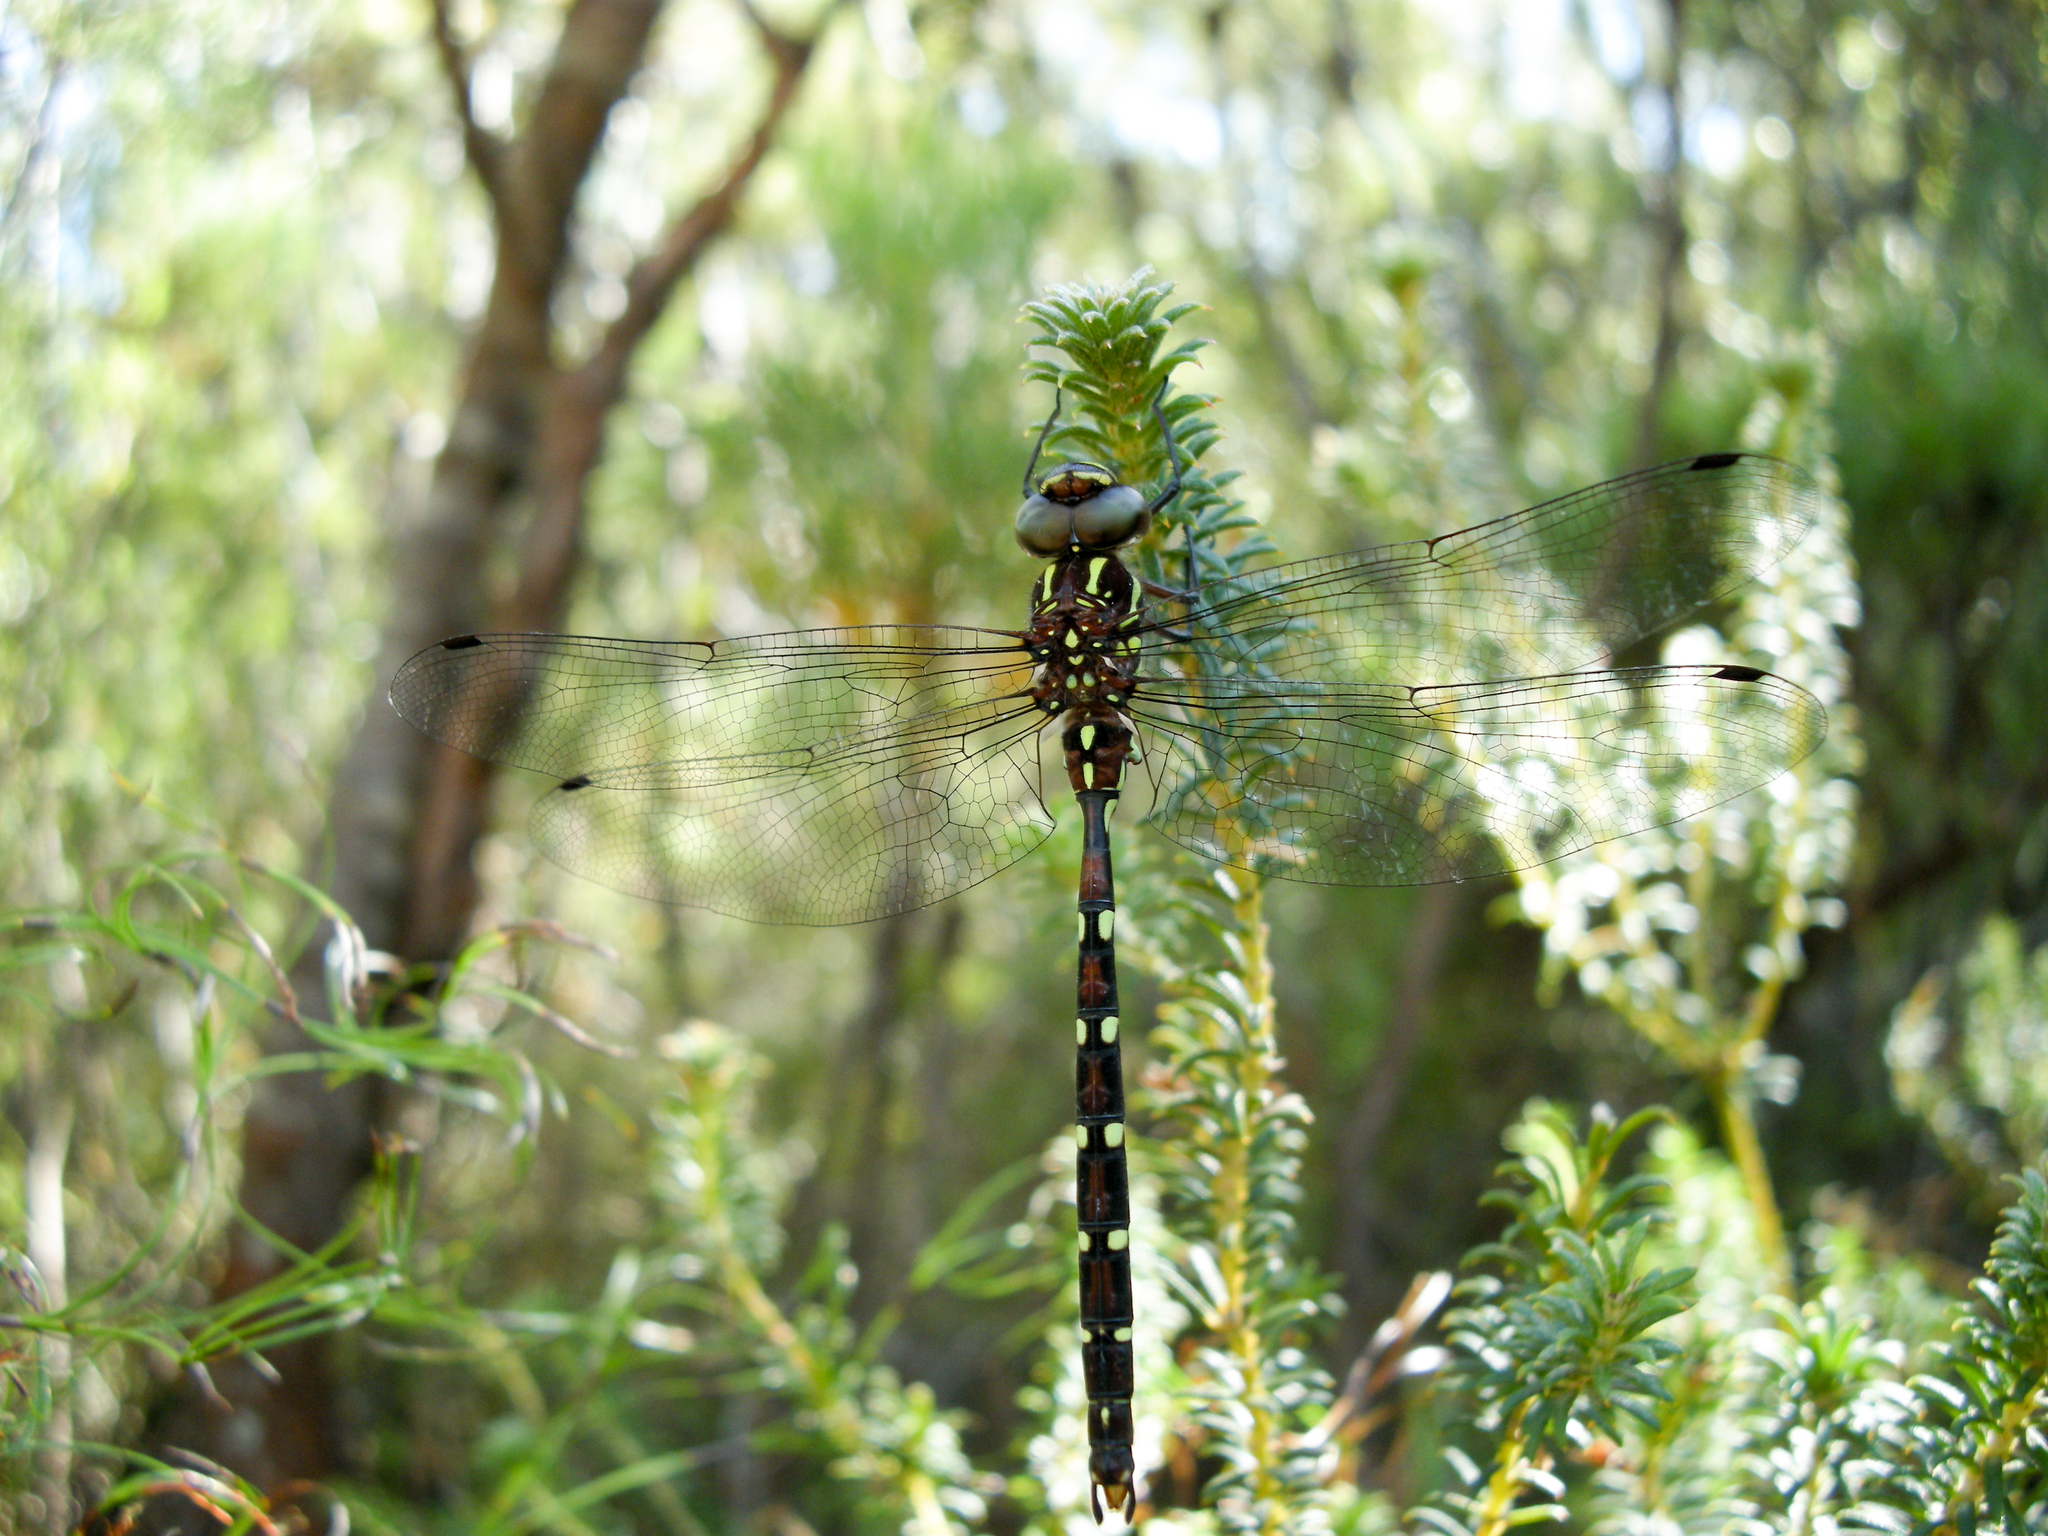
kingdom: Animalia
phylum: Arthropoda
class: Insecta
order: Odonata
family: Aeshnidae
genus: Austroaeschna
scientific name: Austroaeschna pulchra
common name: Forest darner
